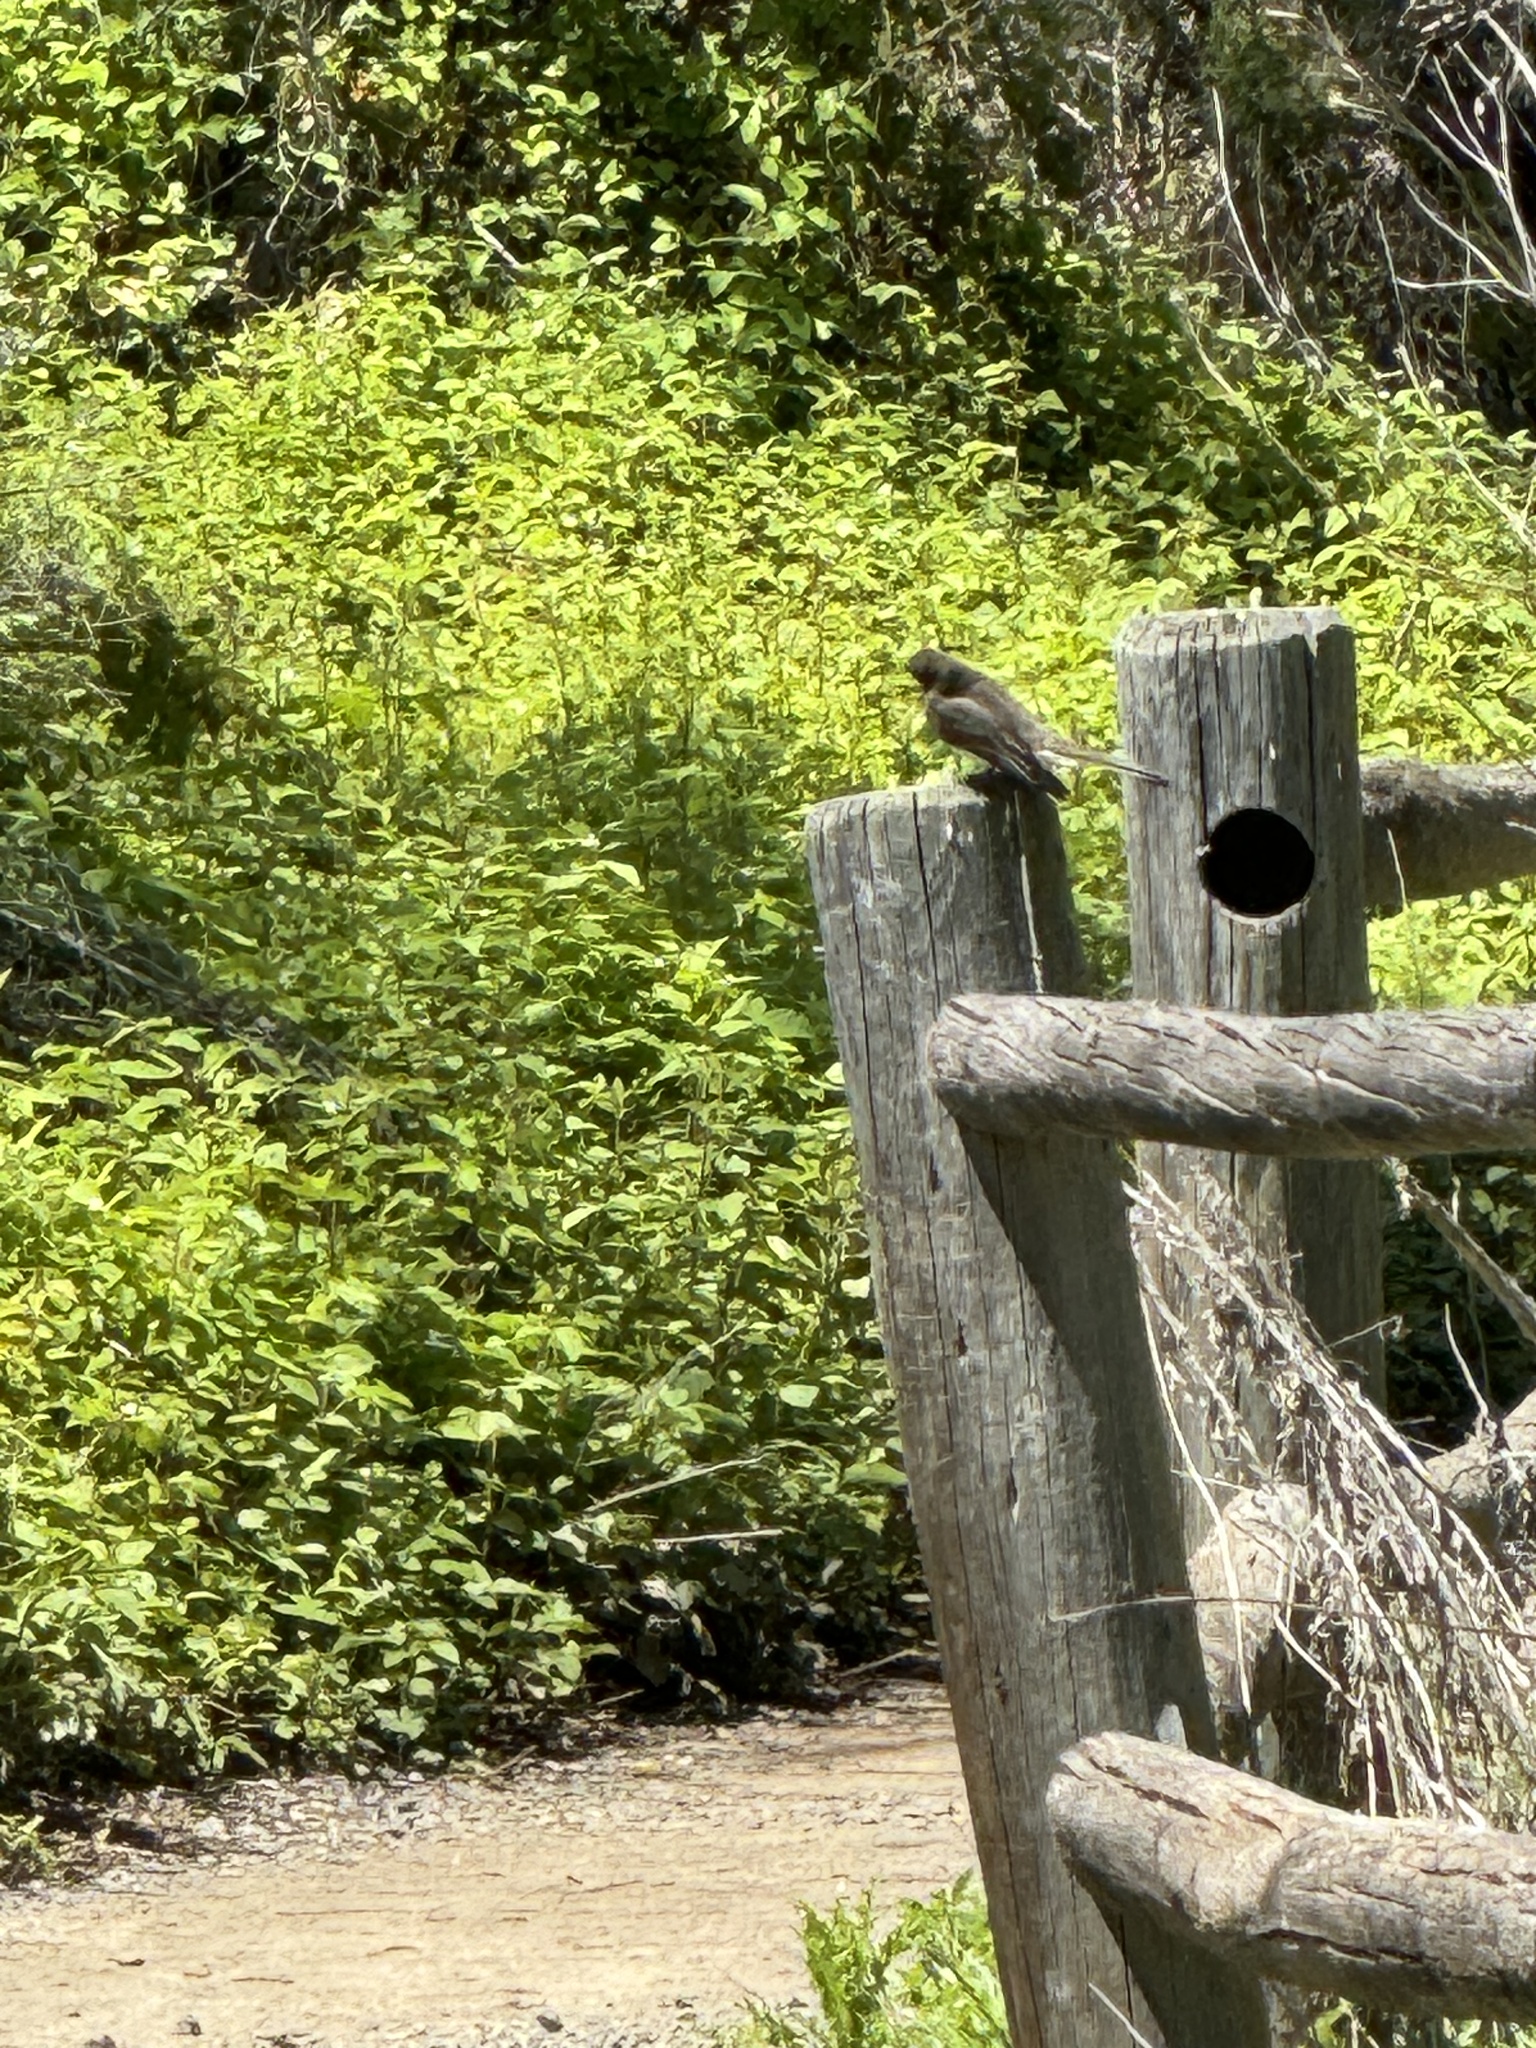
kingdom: Animalia
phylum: Chordata
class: Aves
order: Passeriformes
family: Tyrannidae
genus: Sayornis
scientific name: Sayornis nigricans
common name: Black phoebe
